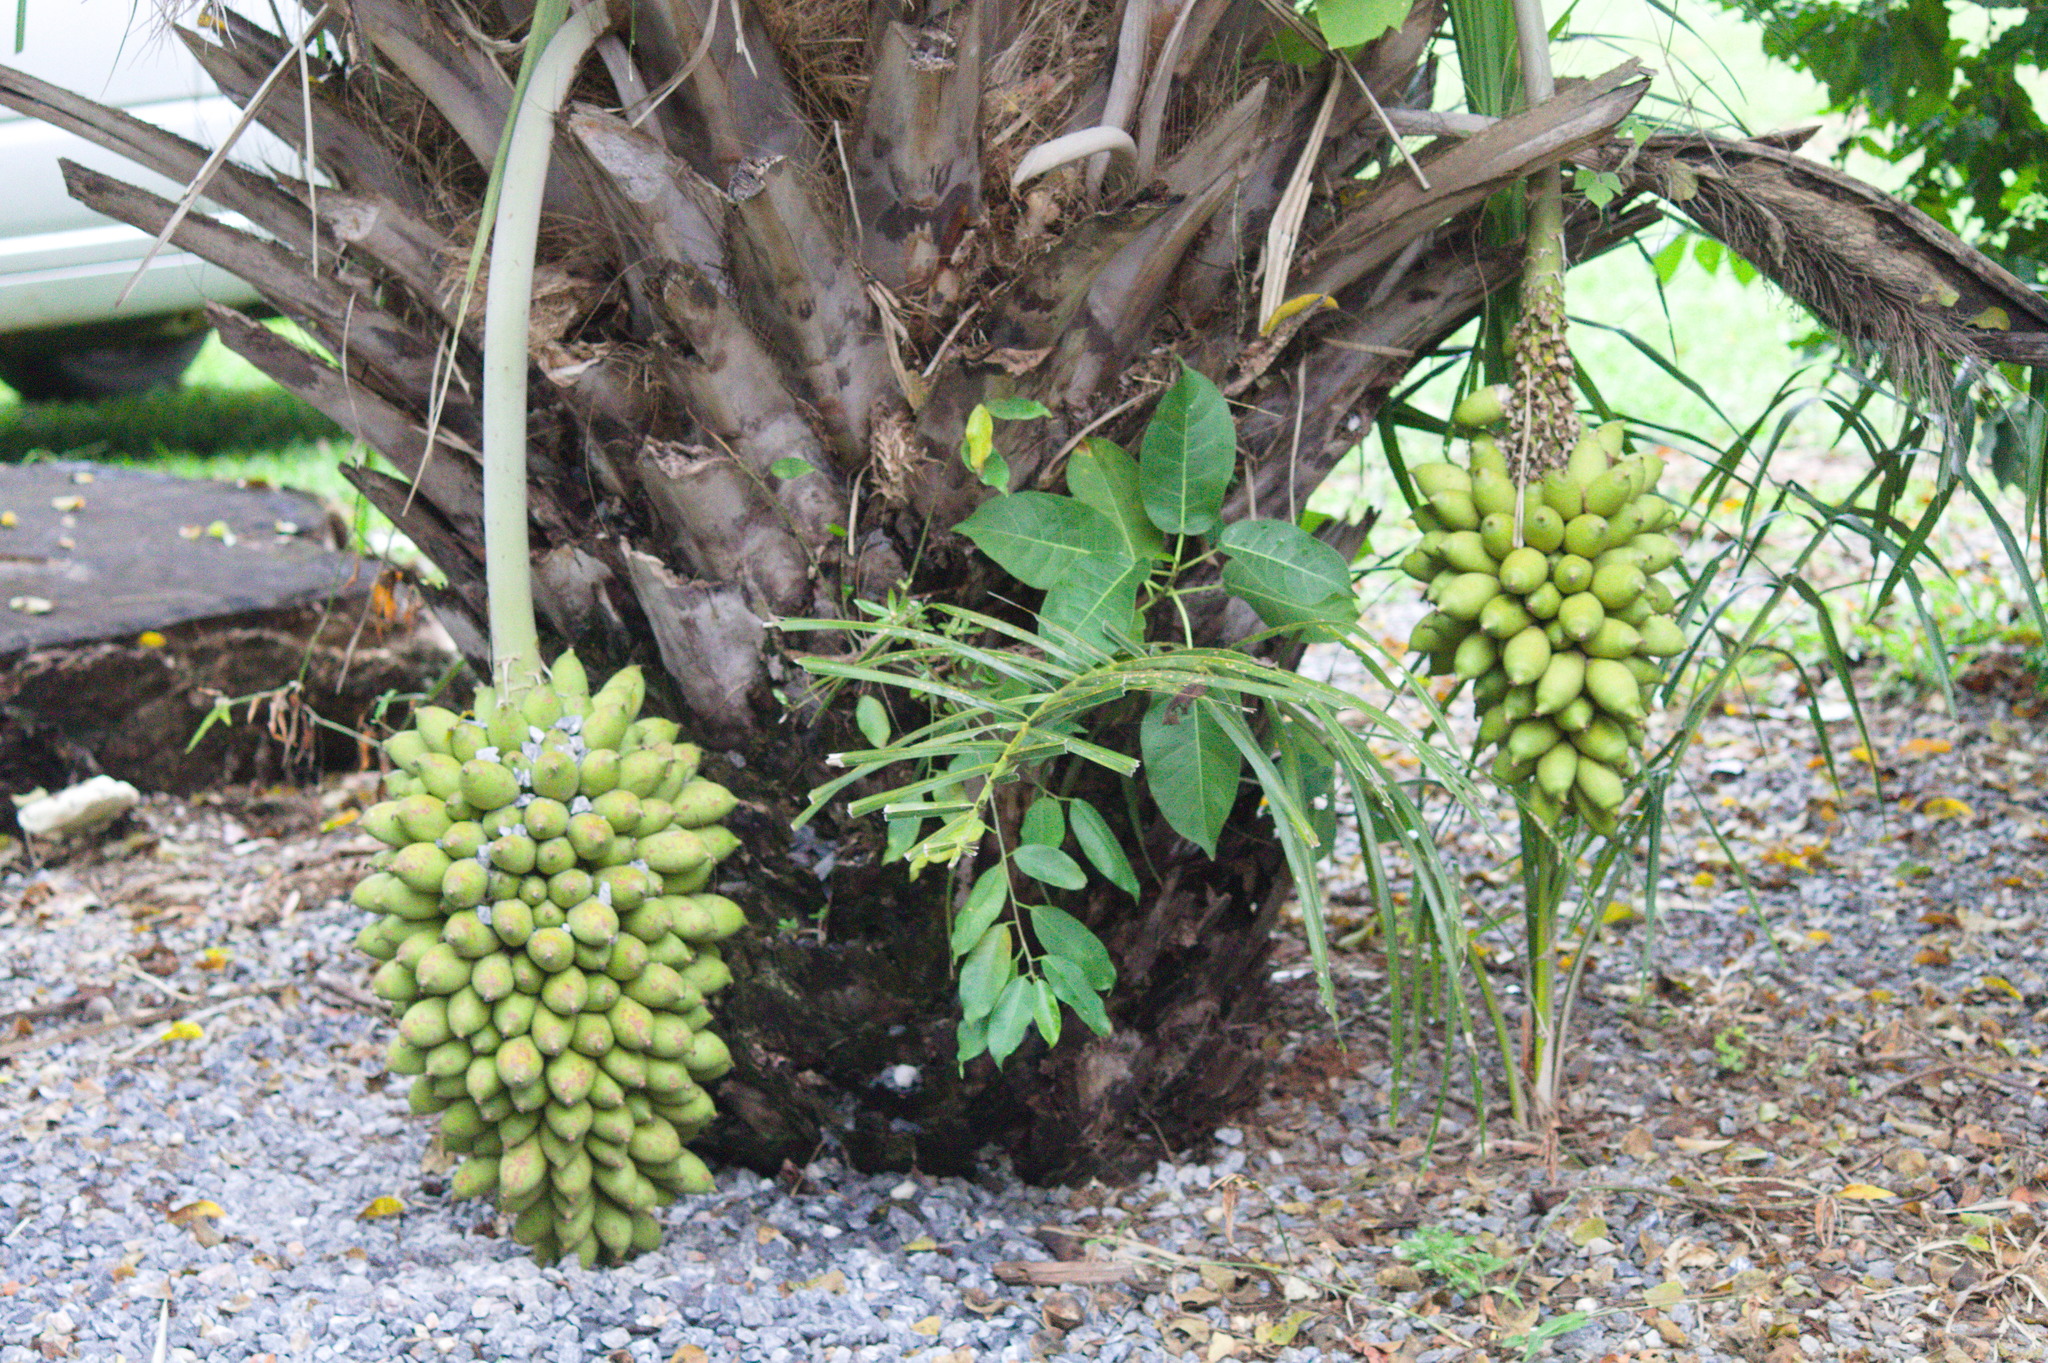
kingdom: Plantae
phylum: Tracheophyta
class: Liliopsida
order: Arecales
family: Arecaceae
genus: Attalea
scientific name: Attalea phalerata
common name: Urucuri palm
